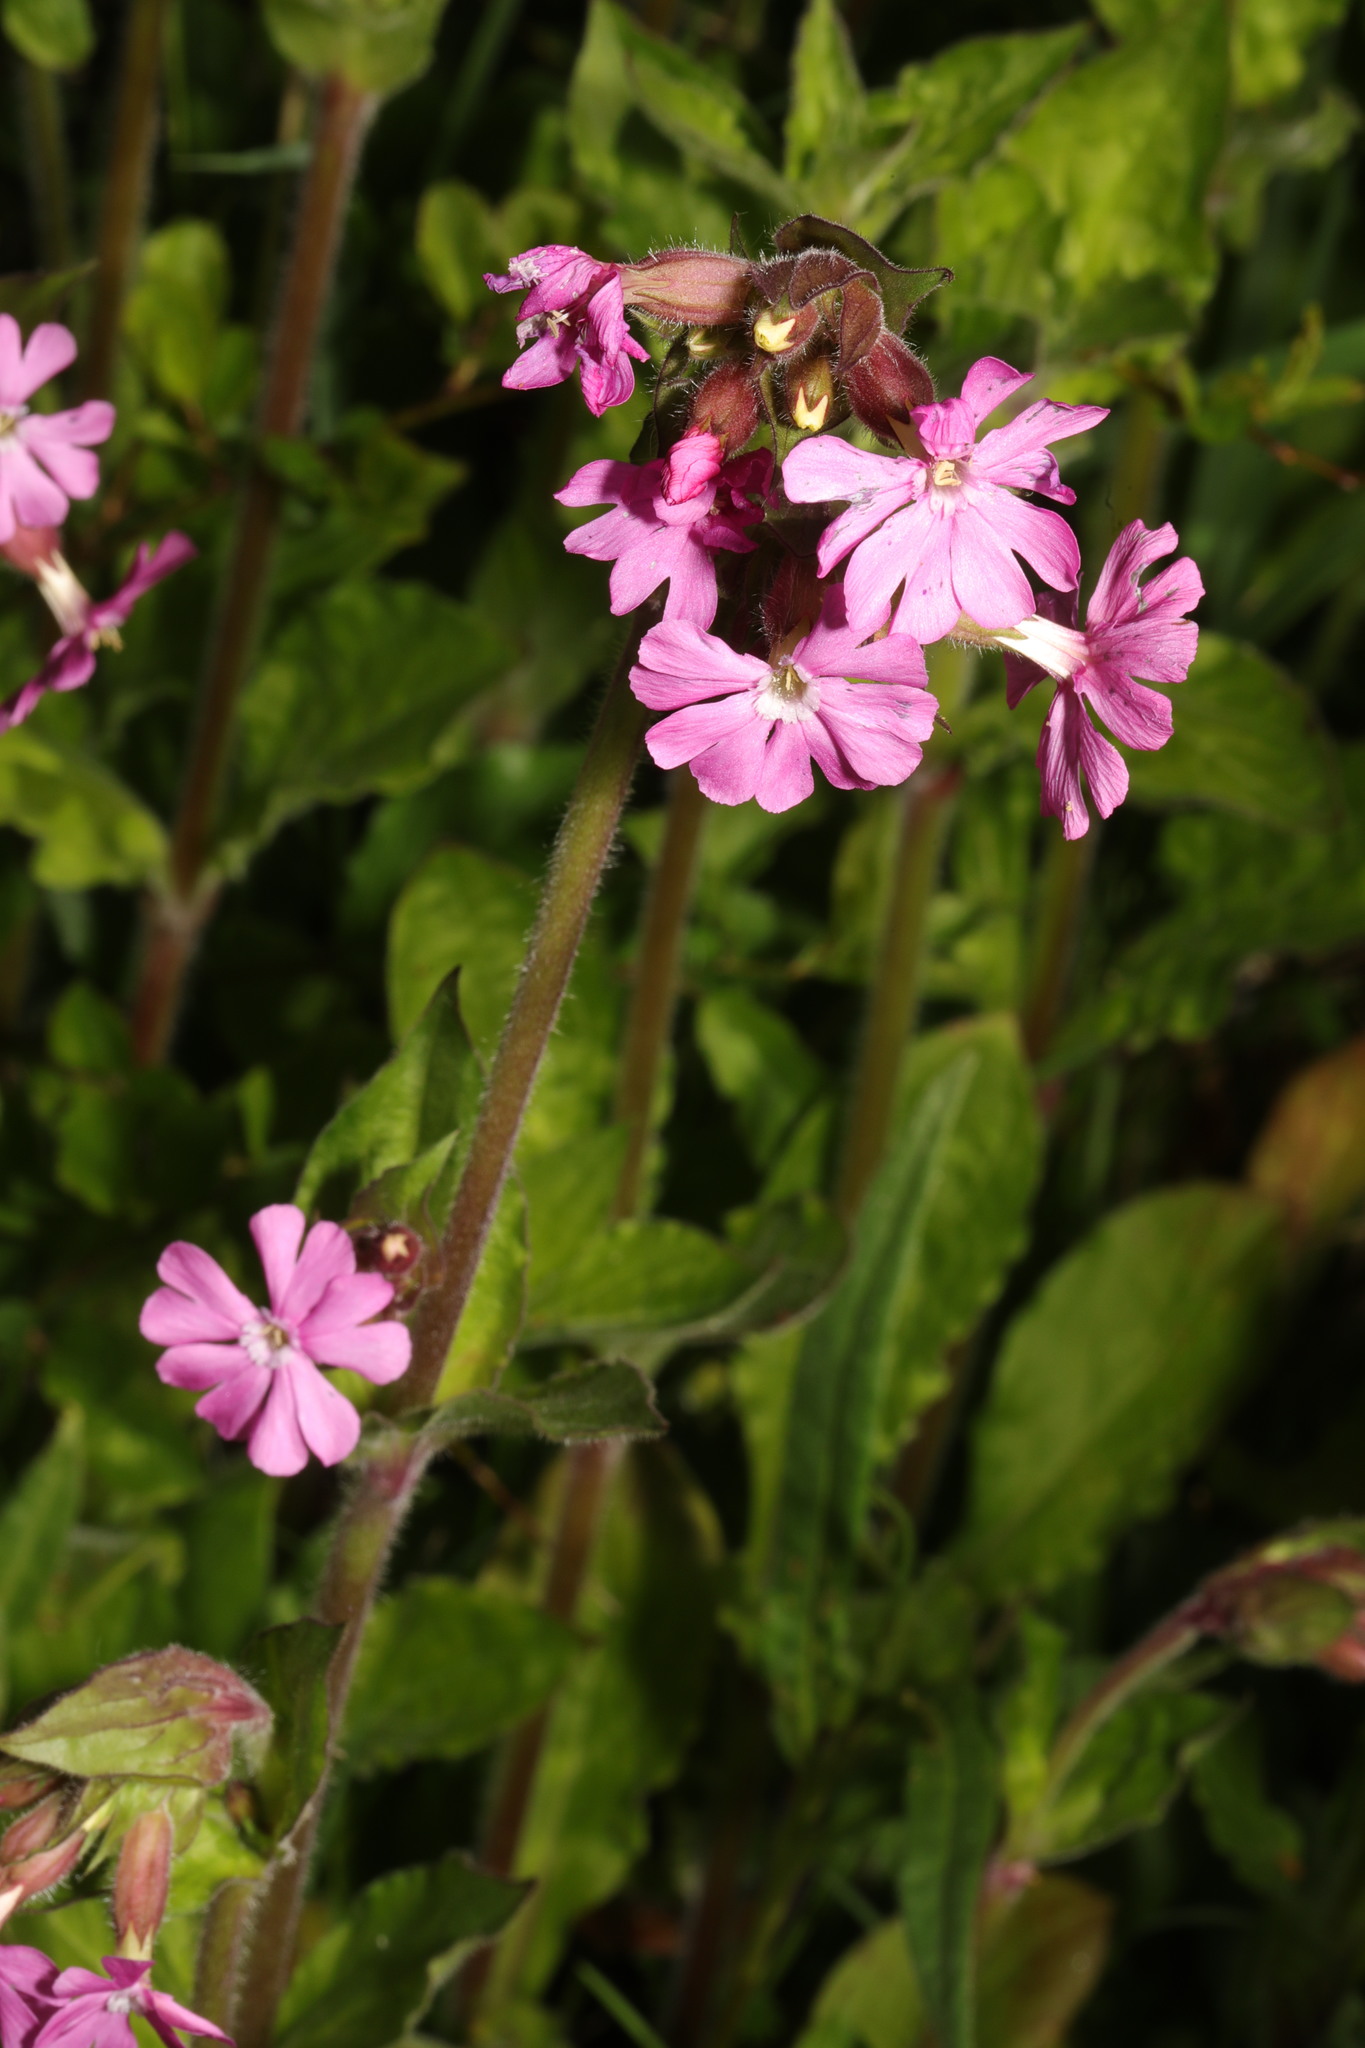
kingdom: Plantae
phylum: Tracheophyta
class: Magnoliopsida
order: Caryophyllales
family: Caryophyllaceae
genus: Silene
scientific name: Silene dioica
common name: Red campion
